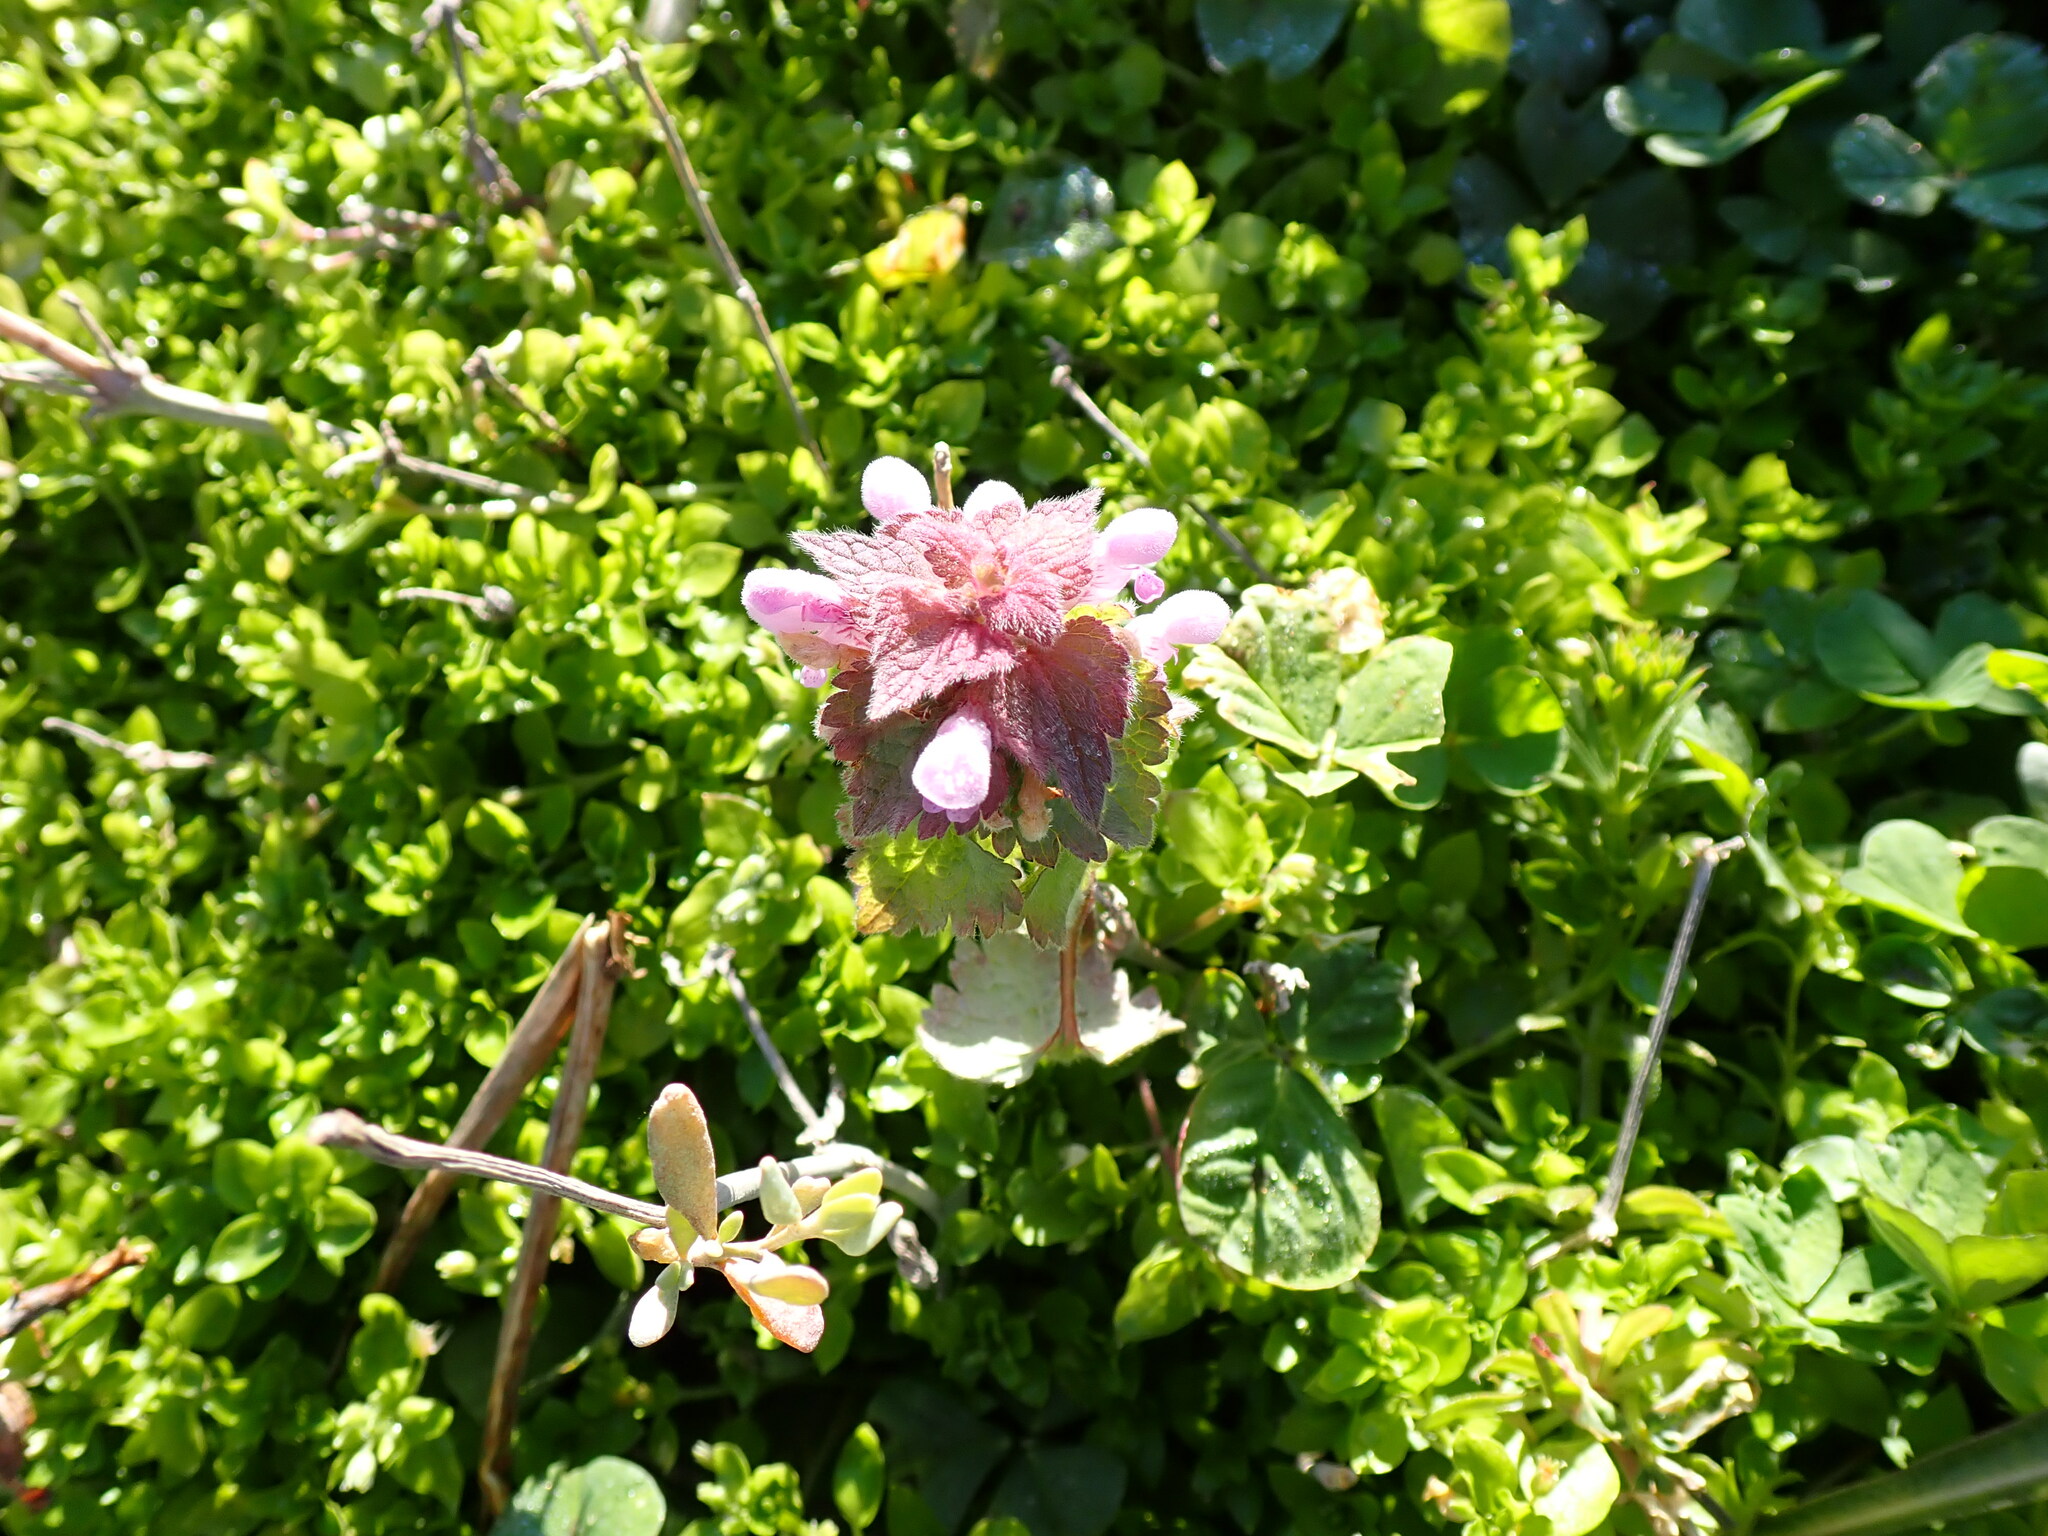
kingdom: Plantae
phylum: Tracheophyta
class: Magnoliopsida
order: Lamiales
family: Lamiaceae
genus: Lamium
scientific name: Lamium purpureum
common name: Red dead-nettle
